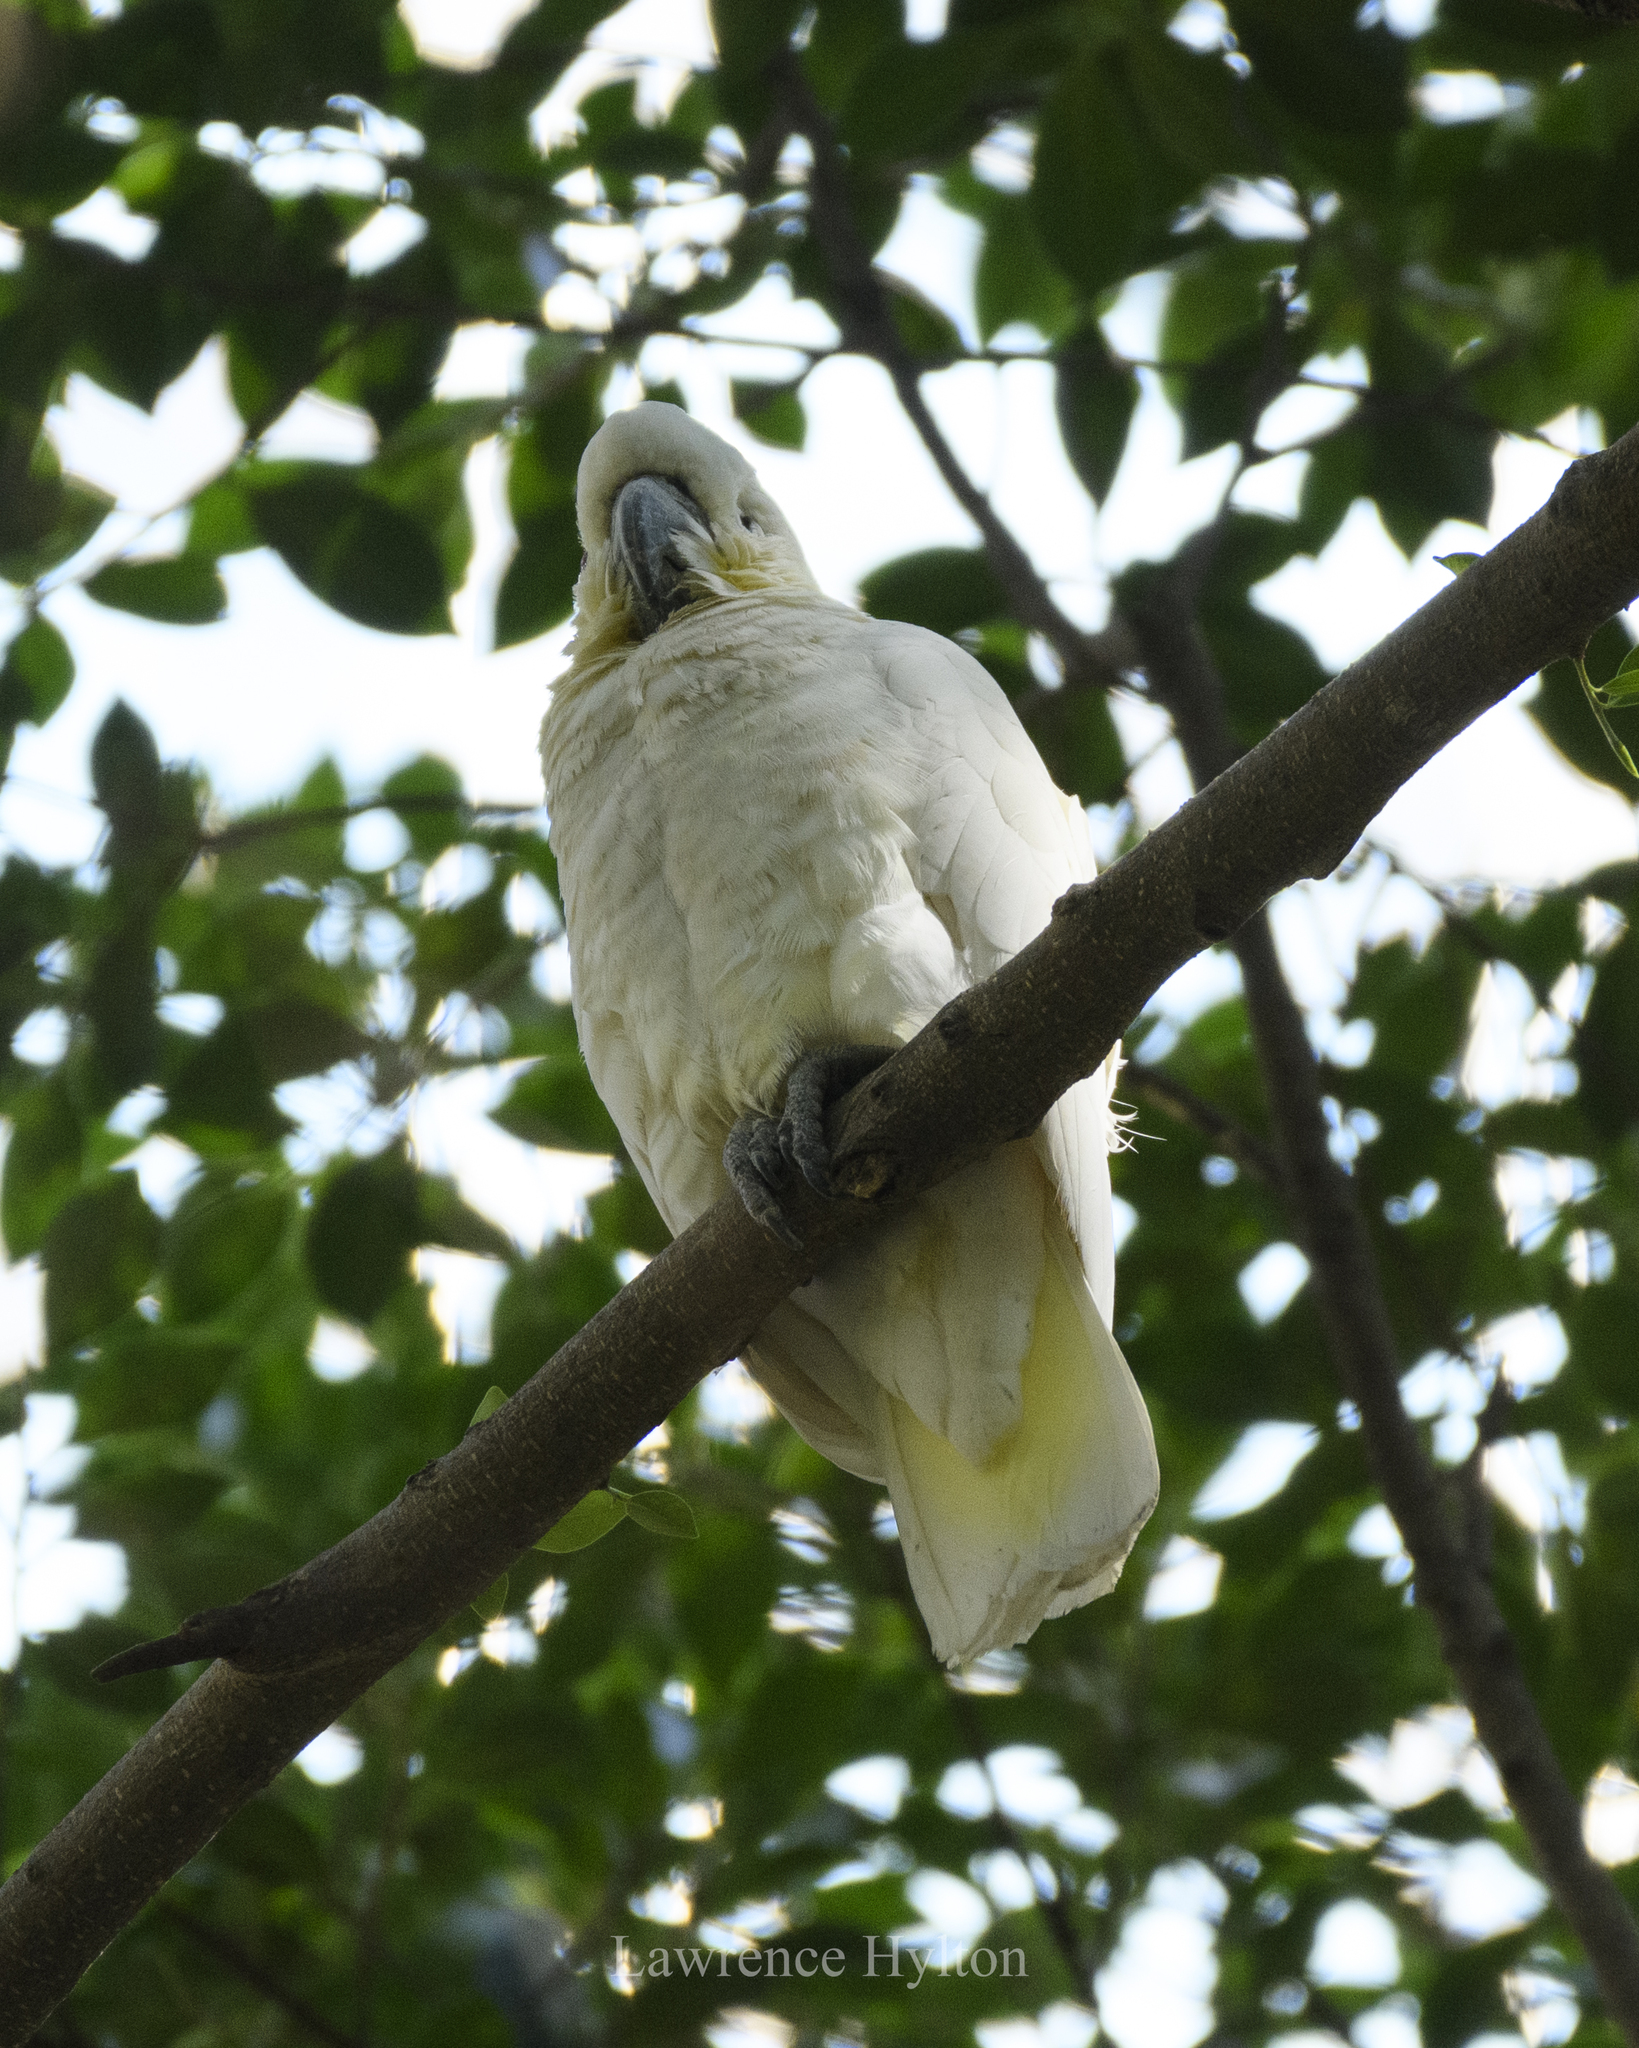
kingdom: Animalia
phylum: Chordata
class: Aves
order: Psittaciformes
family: Psittacidae
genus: Cacatua
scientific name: Cacatua sulphurea
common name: Yellow-crested cockatoo
